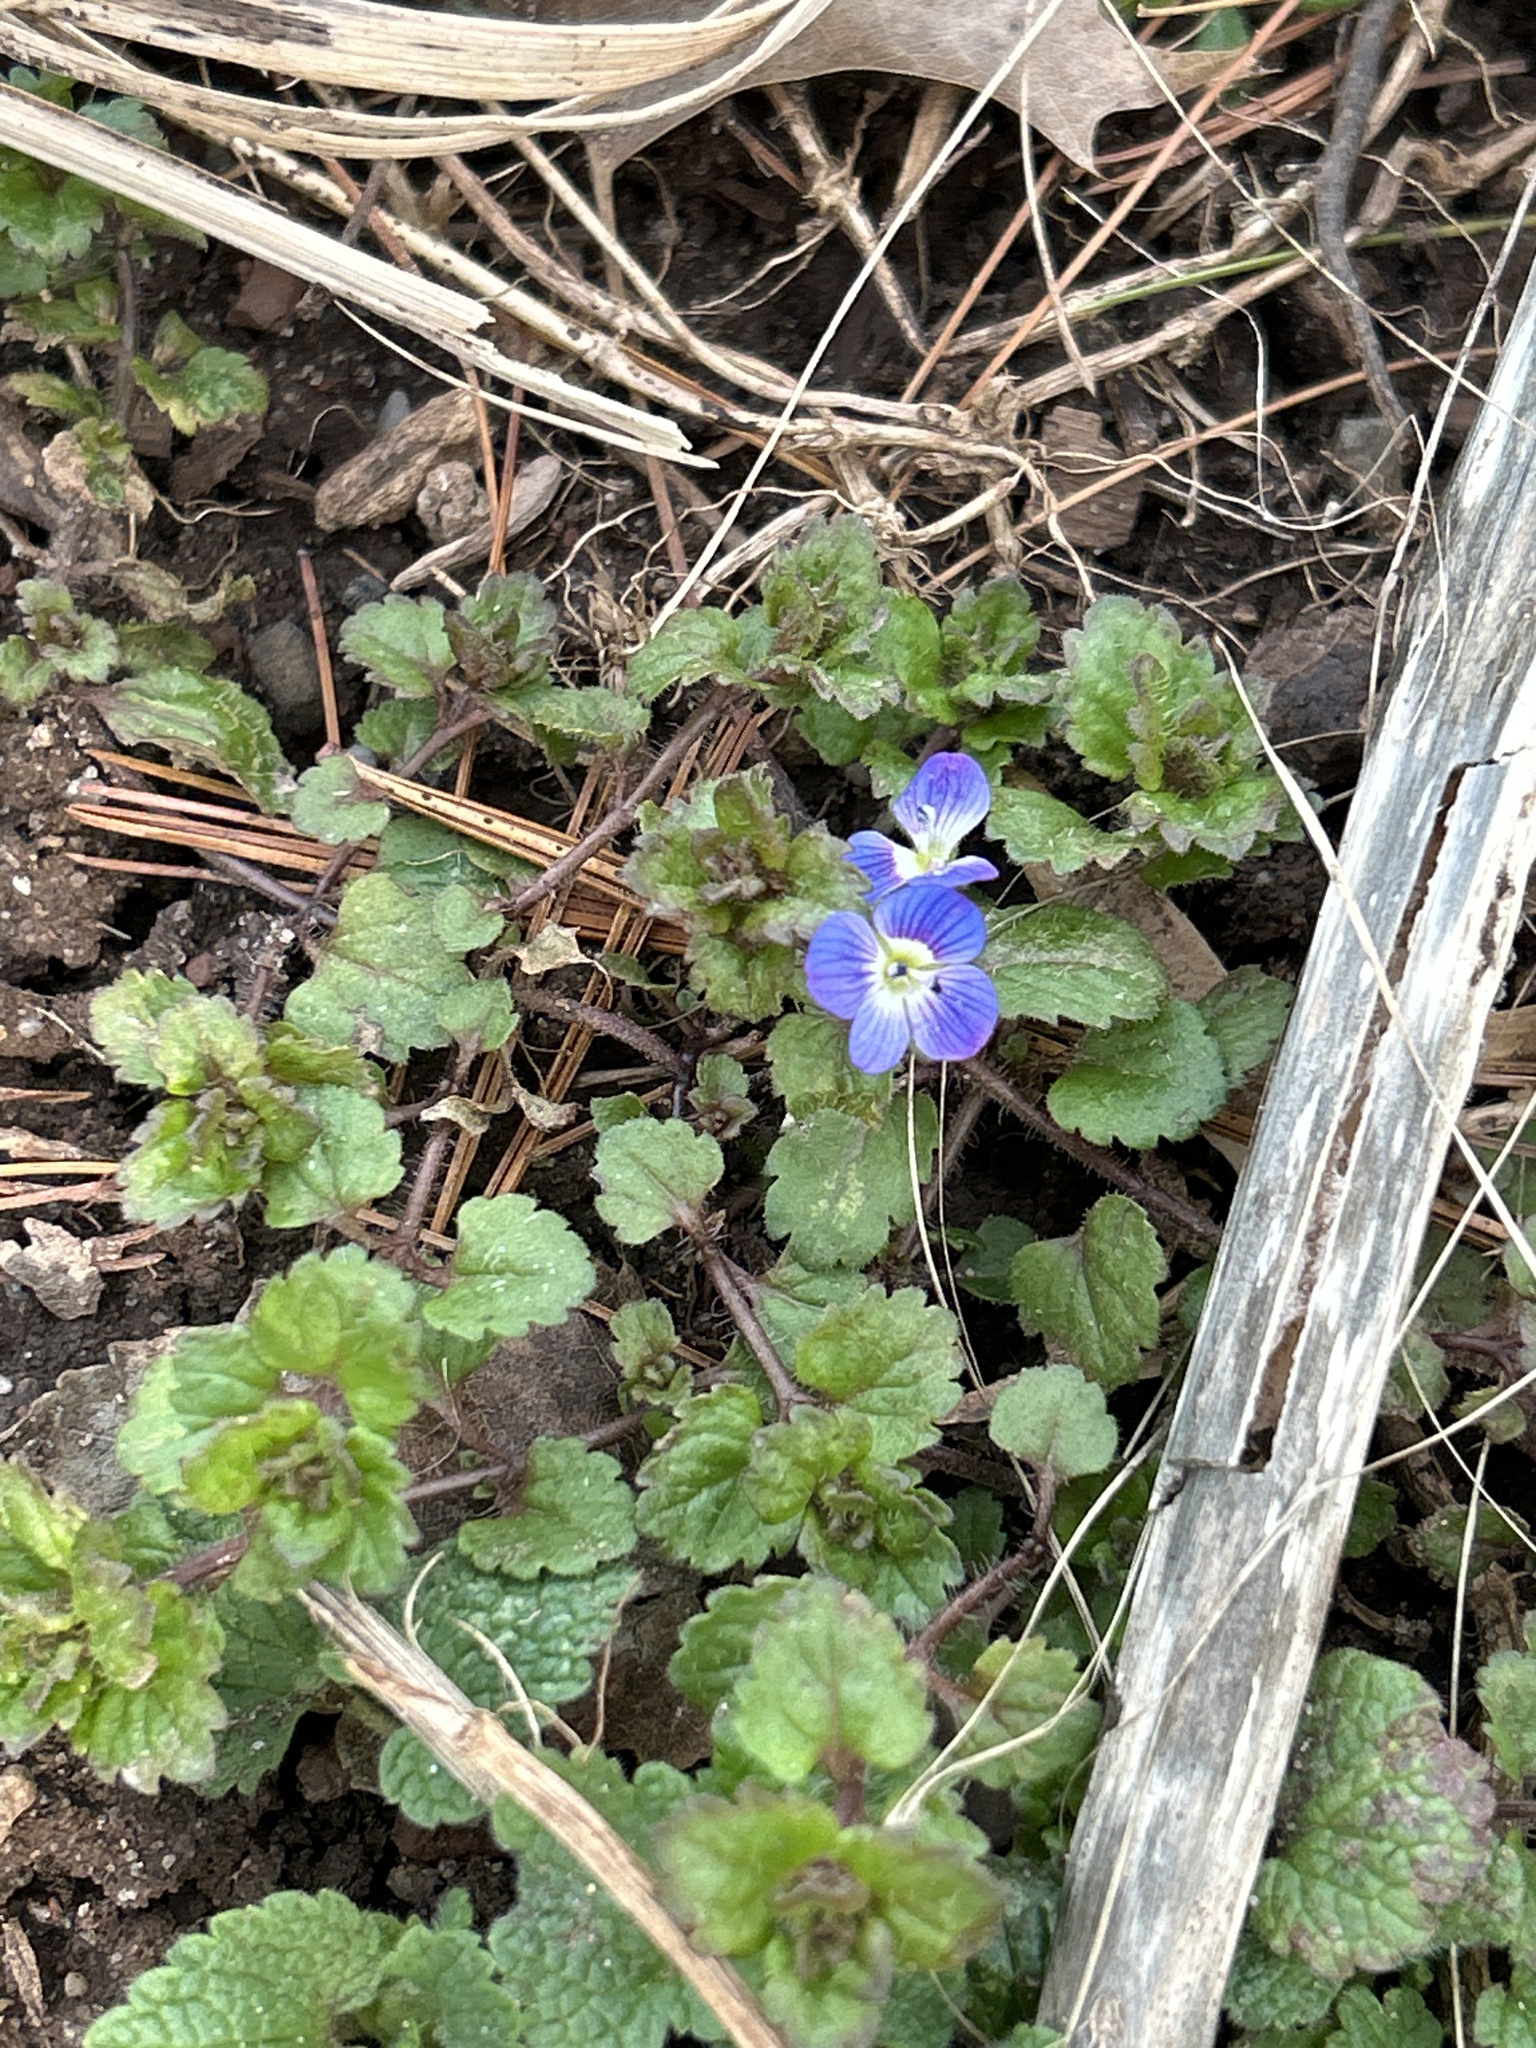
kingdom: Plantae
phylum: Tracheophyta
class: Magnoliopsida
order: Lamiales
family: Plantaginaceae
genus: Veronica
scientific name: Veronica persica
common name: Common field-speedwell
